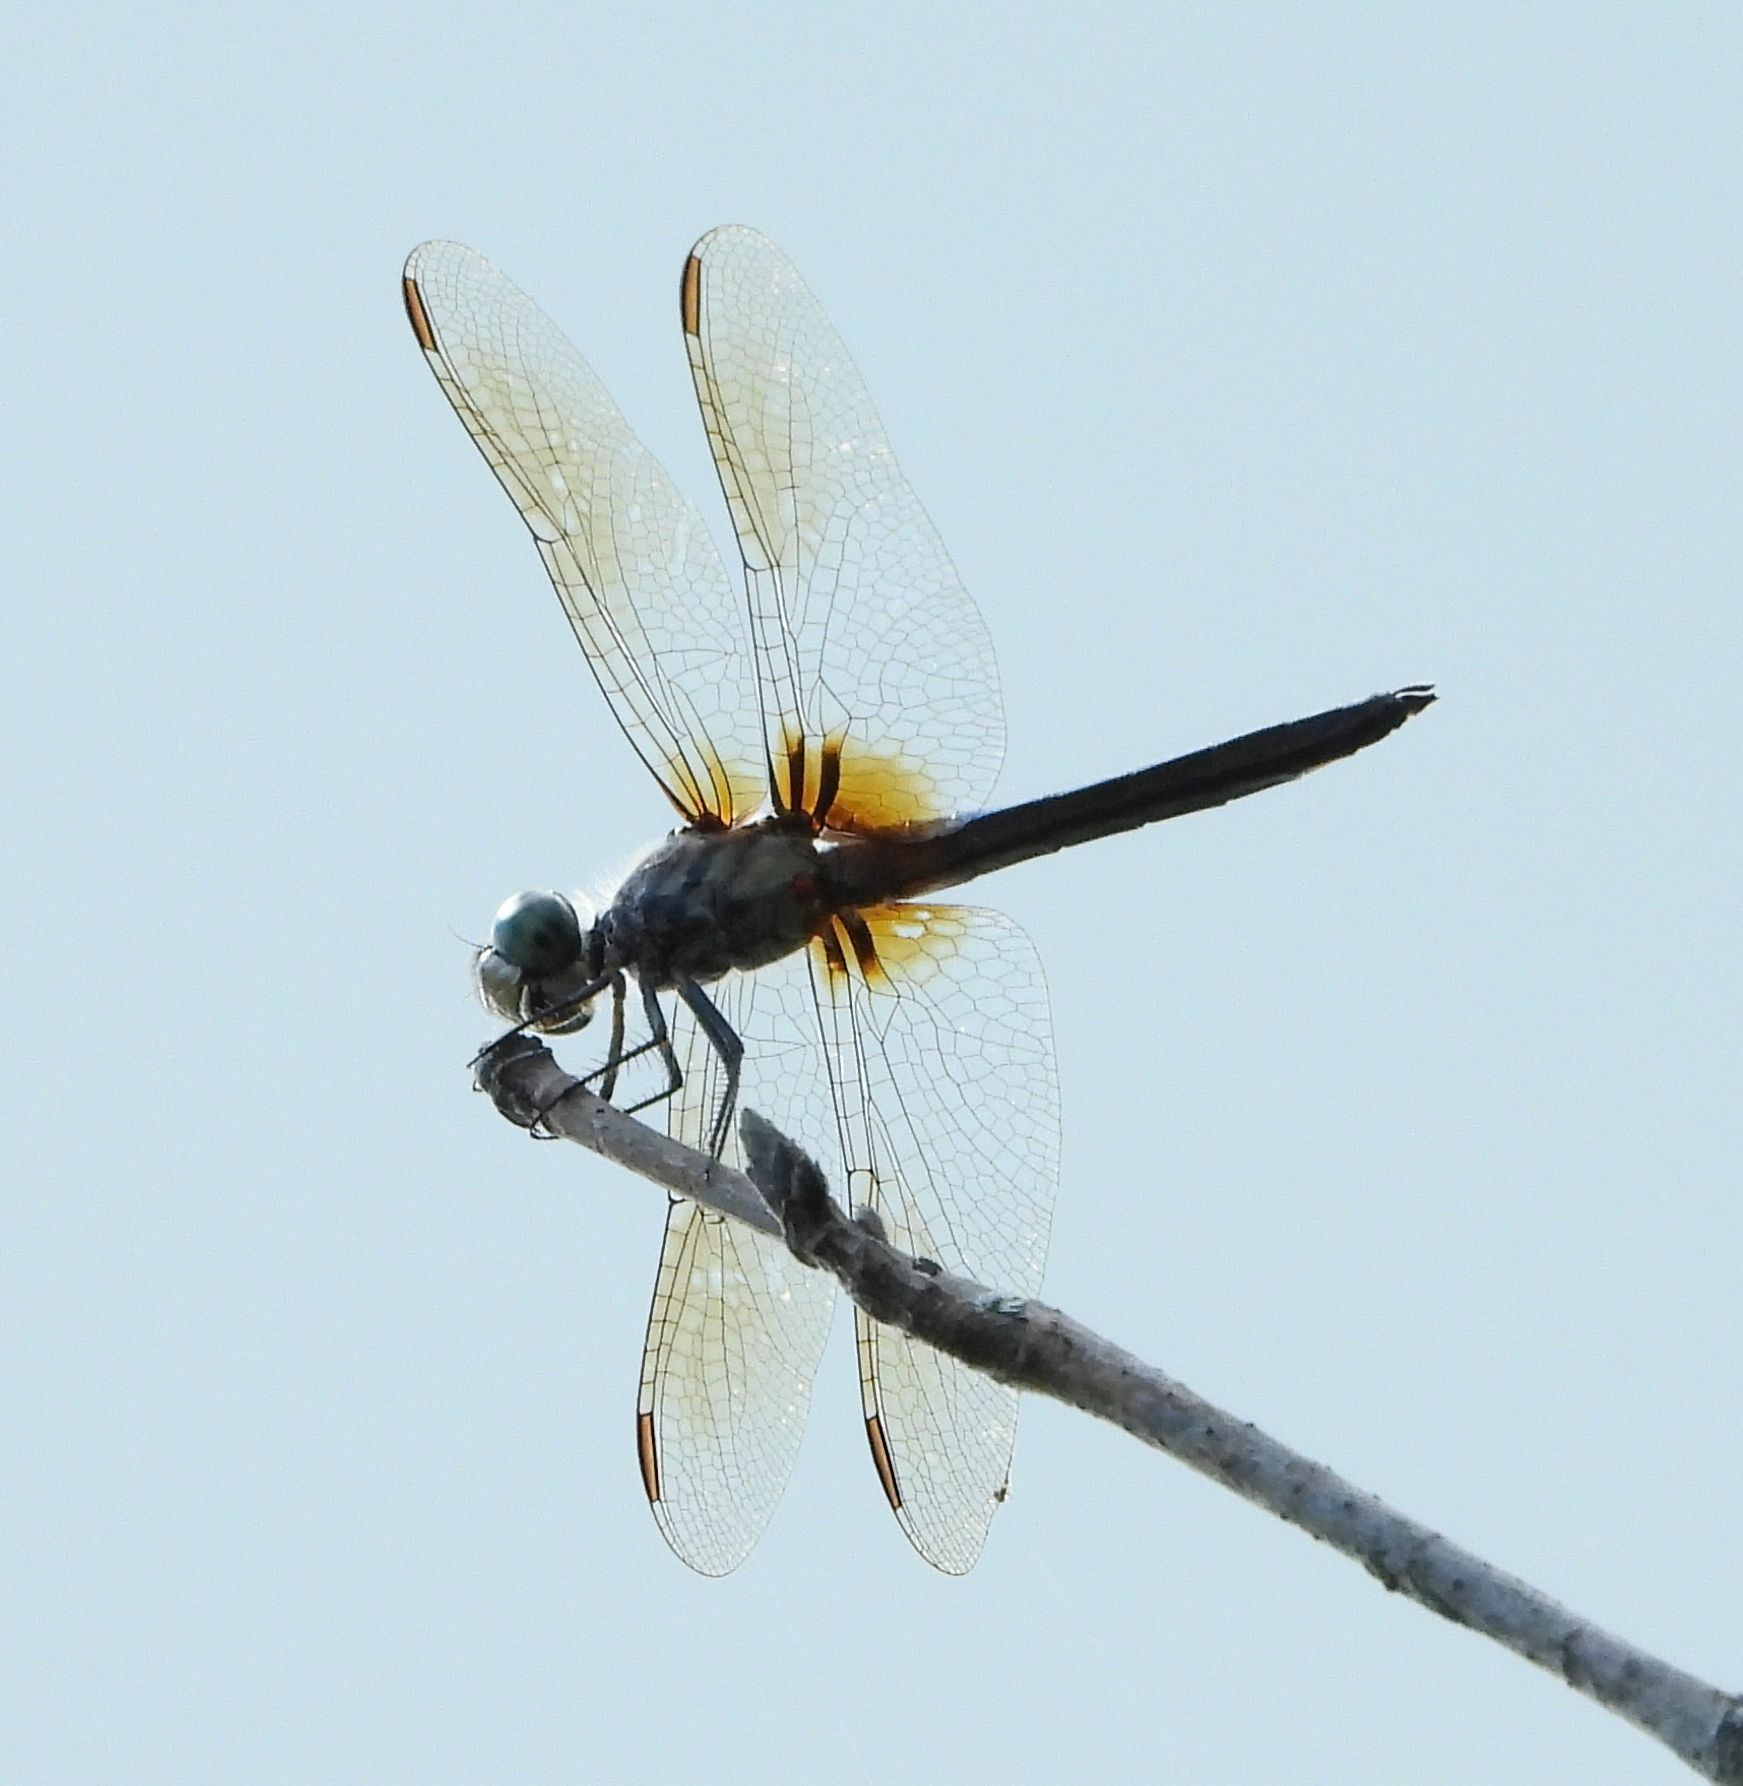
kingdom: Animalia
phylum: Arthropoda
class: Insecta
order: Odonata
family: Libellulidae
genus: Pachydiplax
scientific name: Pachydiplax longipennis
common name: Blue dasher
